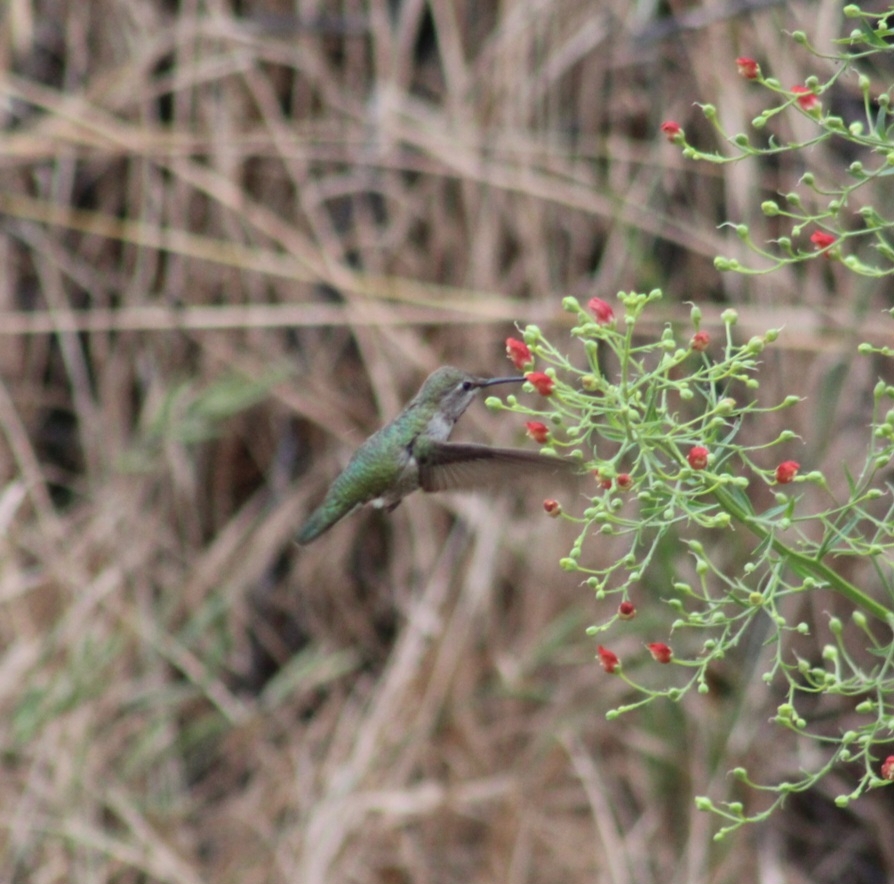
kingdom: Animalia
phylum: Chordata
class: Aves
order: Apodiformes
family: Trochilidae
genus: Calypte
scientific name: Calypte anna
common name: Anna's hummingbird
